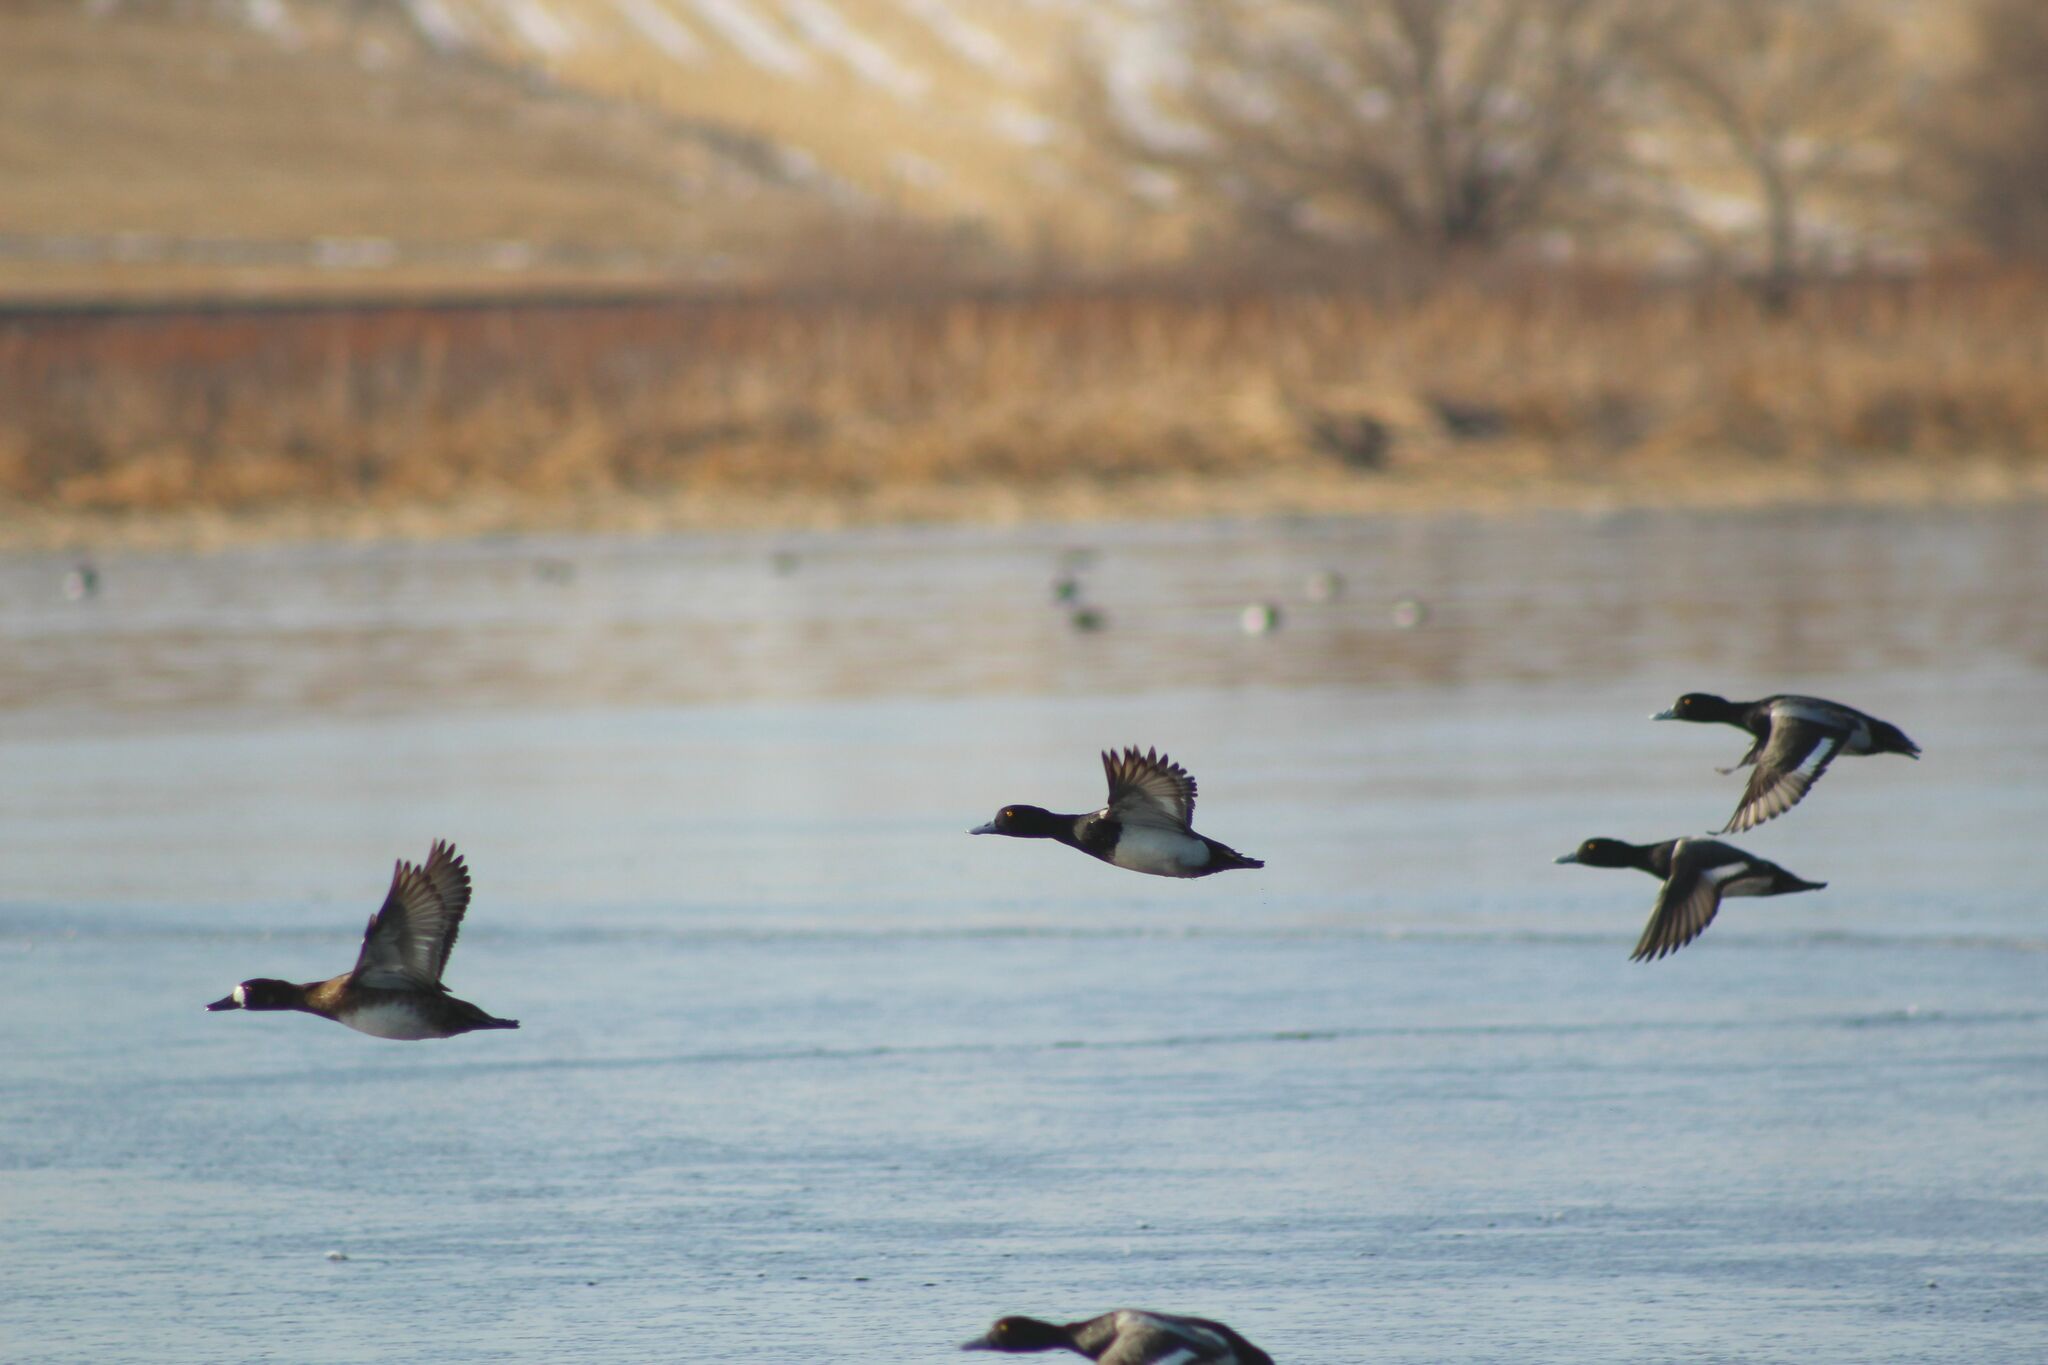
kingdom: Animalia
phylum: Chordata
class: Aves
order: Anseriformes
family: Anatidae
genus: Aythya
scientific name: Aythya affinis
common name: Lesser scaup
